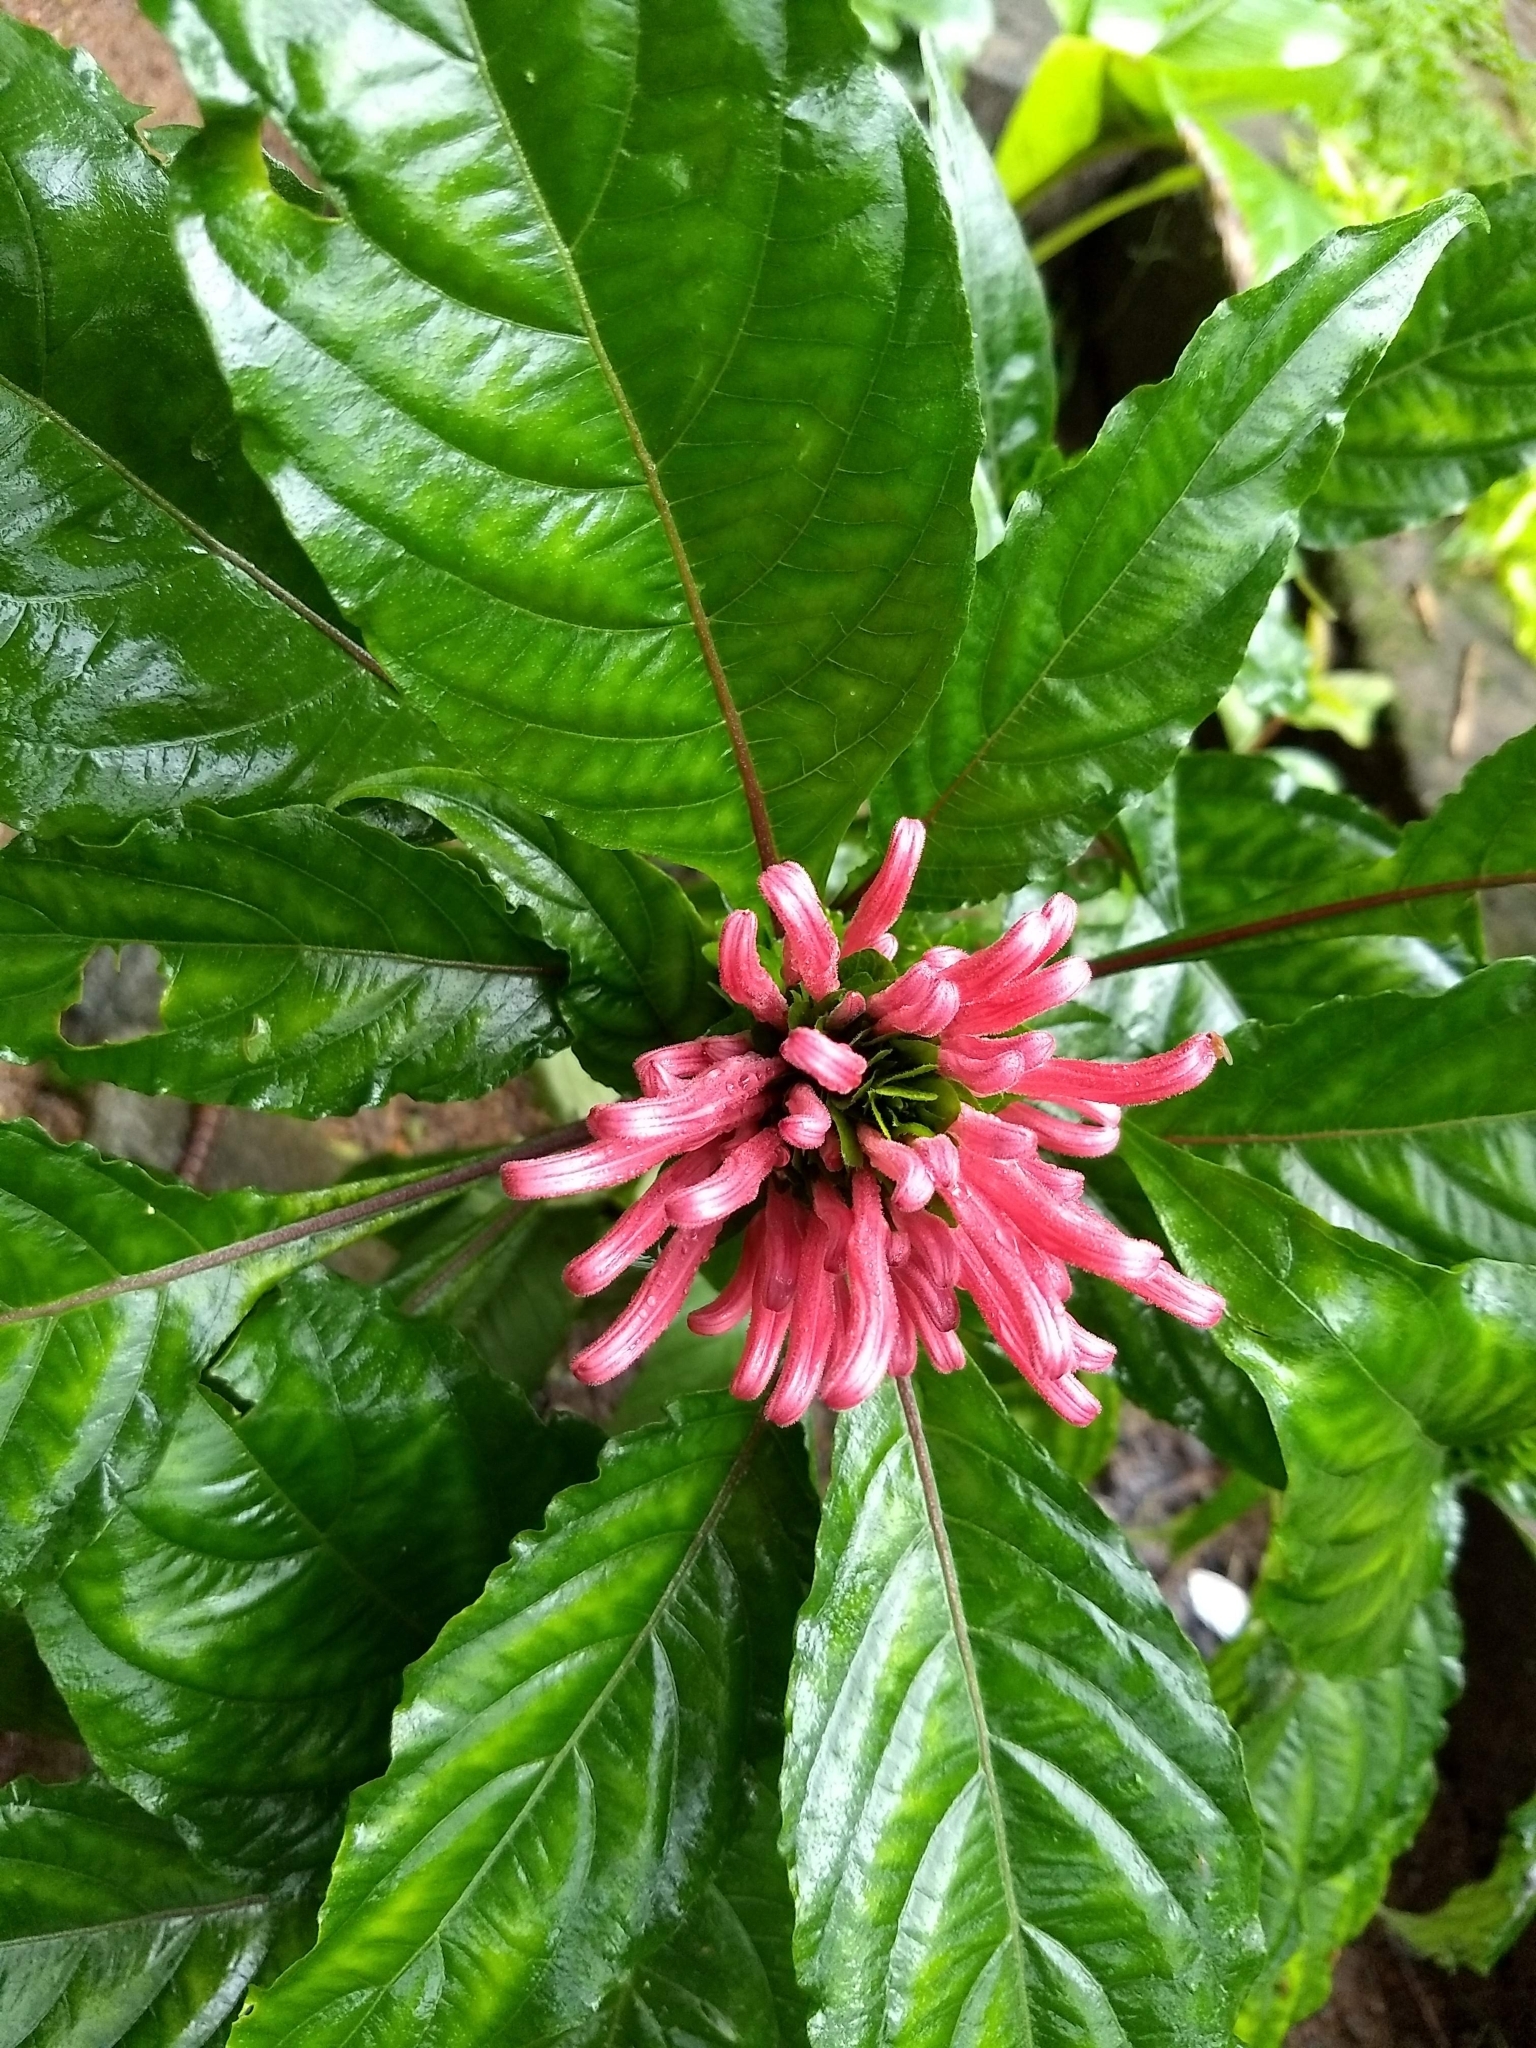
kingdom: Plantae
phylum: Tracheophyta
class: Magnoliopsida
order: Lamiales
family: Acanthaceae
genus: Justicia
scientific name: Justicia carnea
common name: Brazilian-plume
